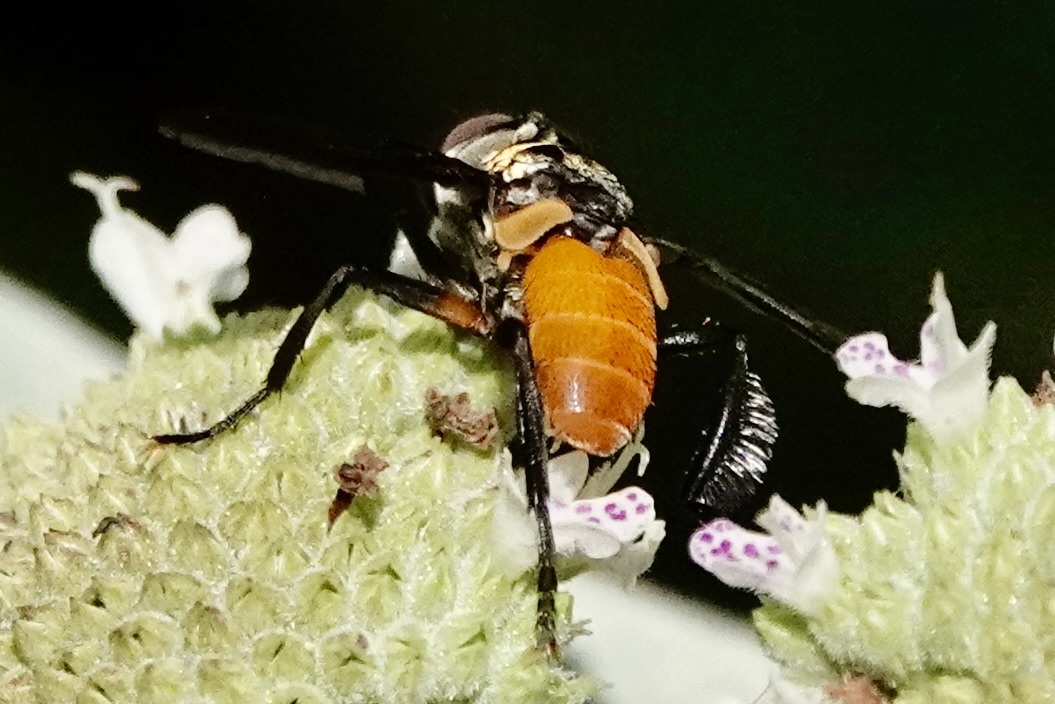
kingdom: Animalia
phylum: Arthropoda
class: Insecta
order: Diptera
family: Tachinidae
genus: Trichopoda
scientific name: Trichopoda pennipes
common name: Tachinid fly
